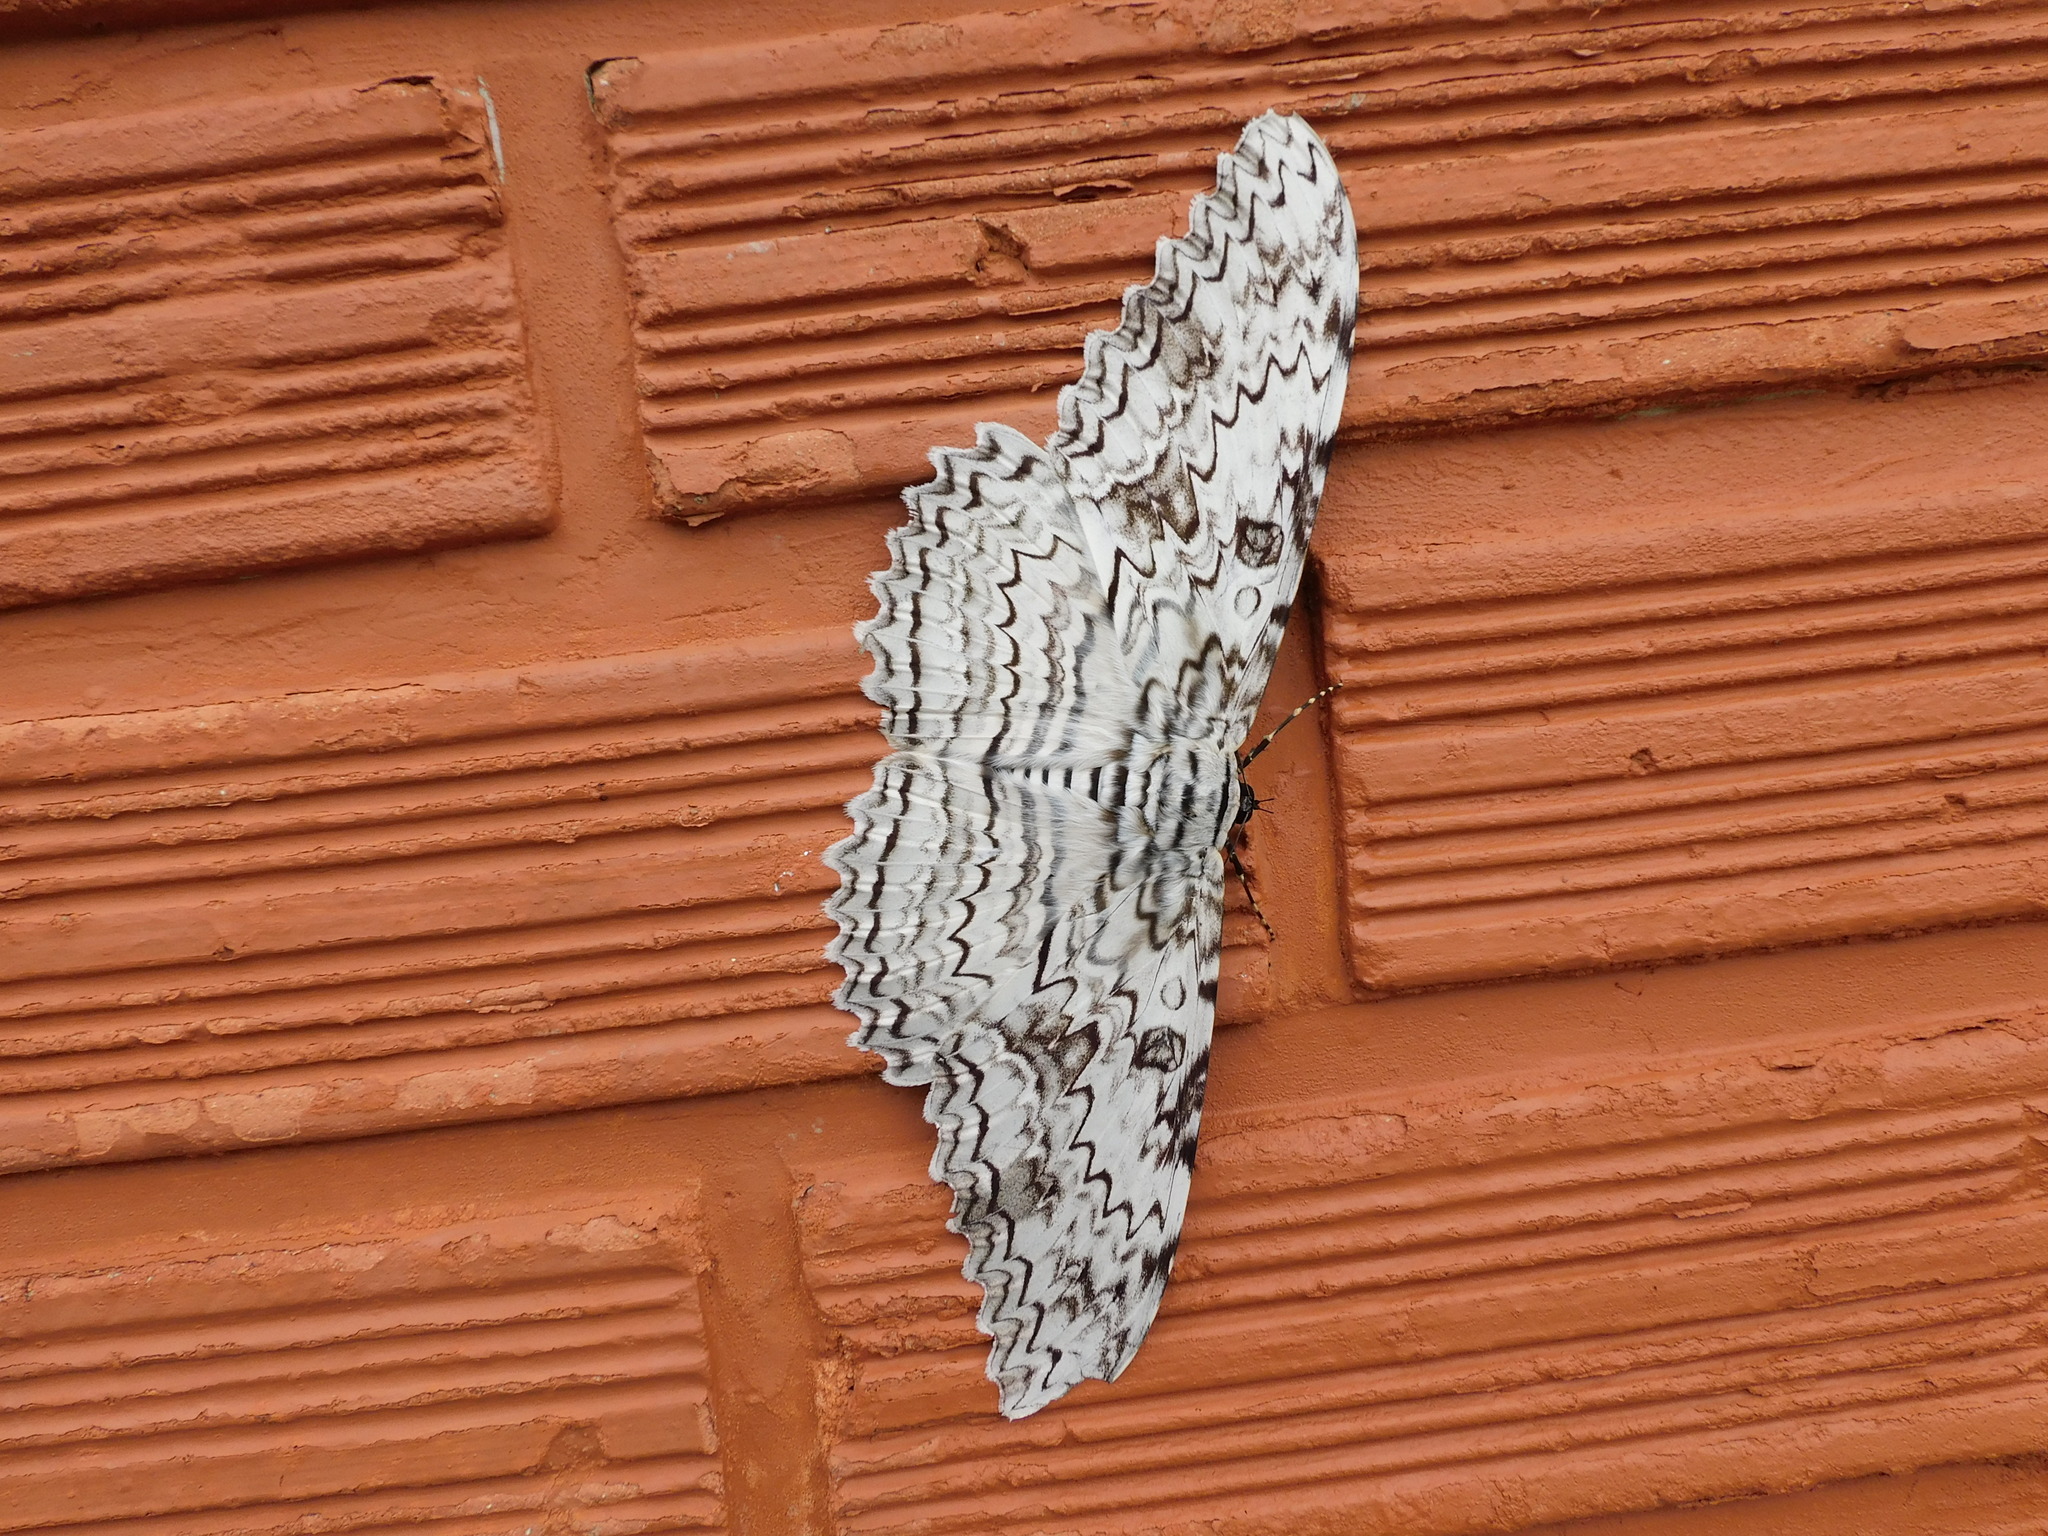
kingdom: Animalia
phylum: Arthropoda
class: Insecta
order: Lepidoptera
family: Erebidae
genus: Thysania
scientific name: Thysania agrippina
